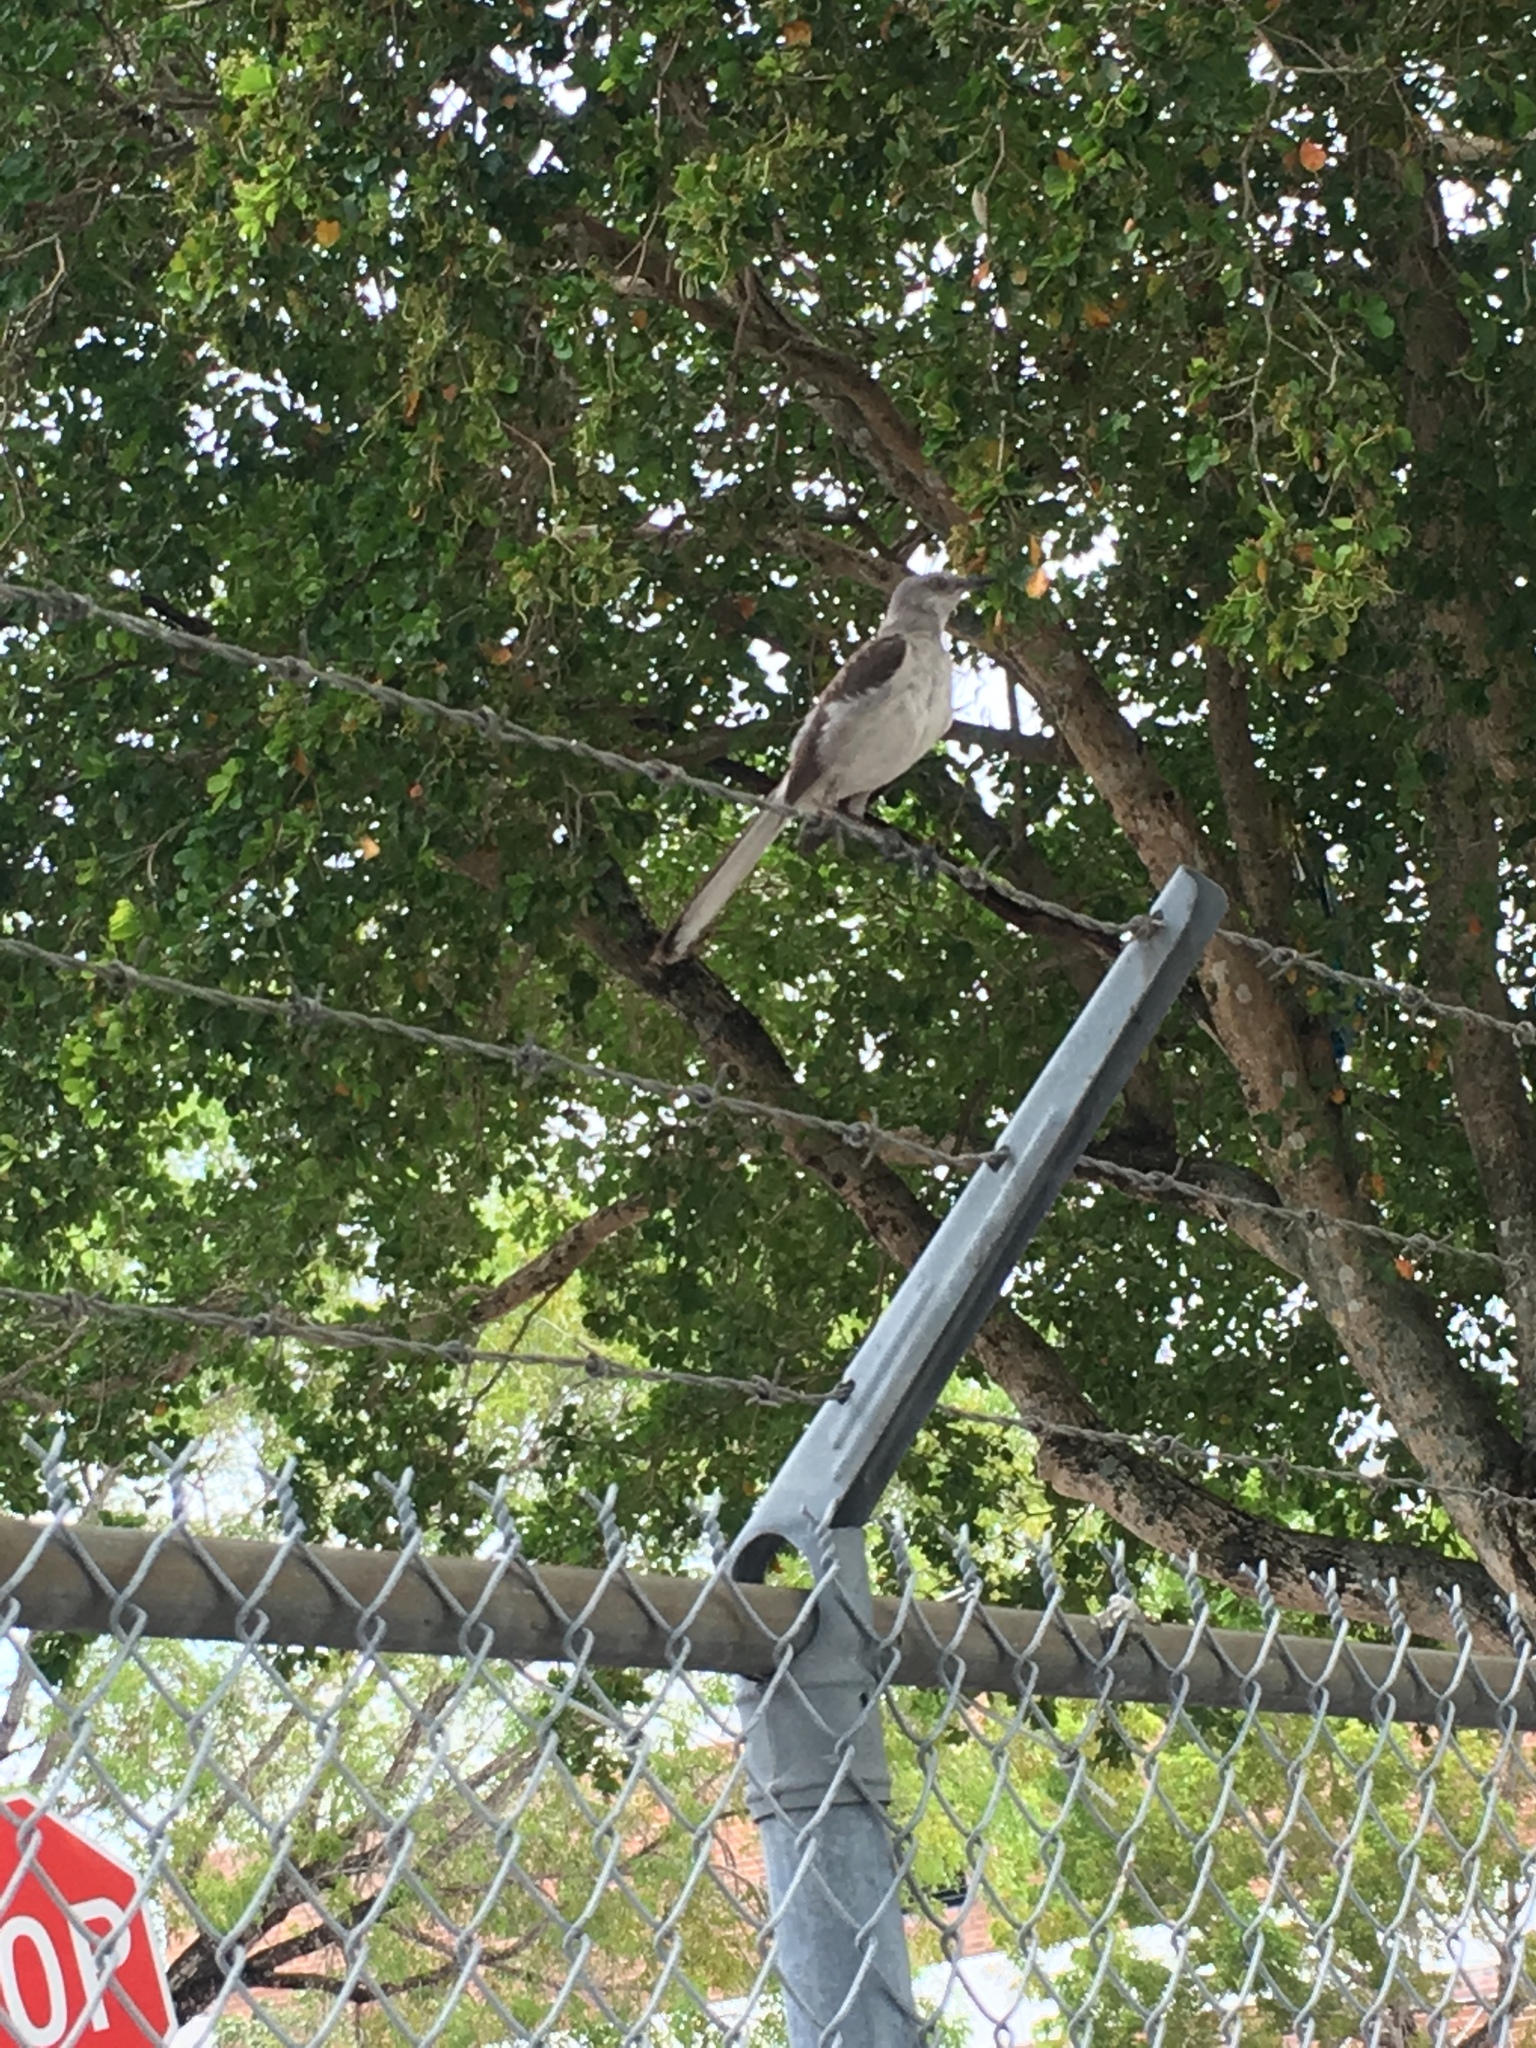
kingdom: Animalia
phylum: Chordata
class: Aves
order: Passeriformes
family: Mimidae
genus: Mimus
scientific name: Mimus polyglottos
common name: Northern mockingbird
